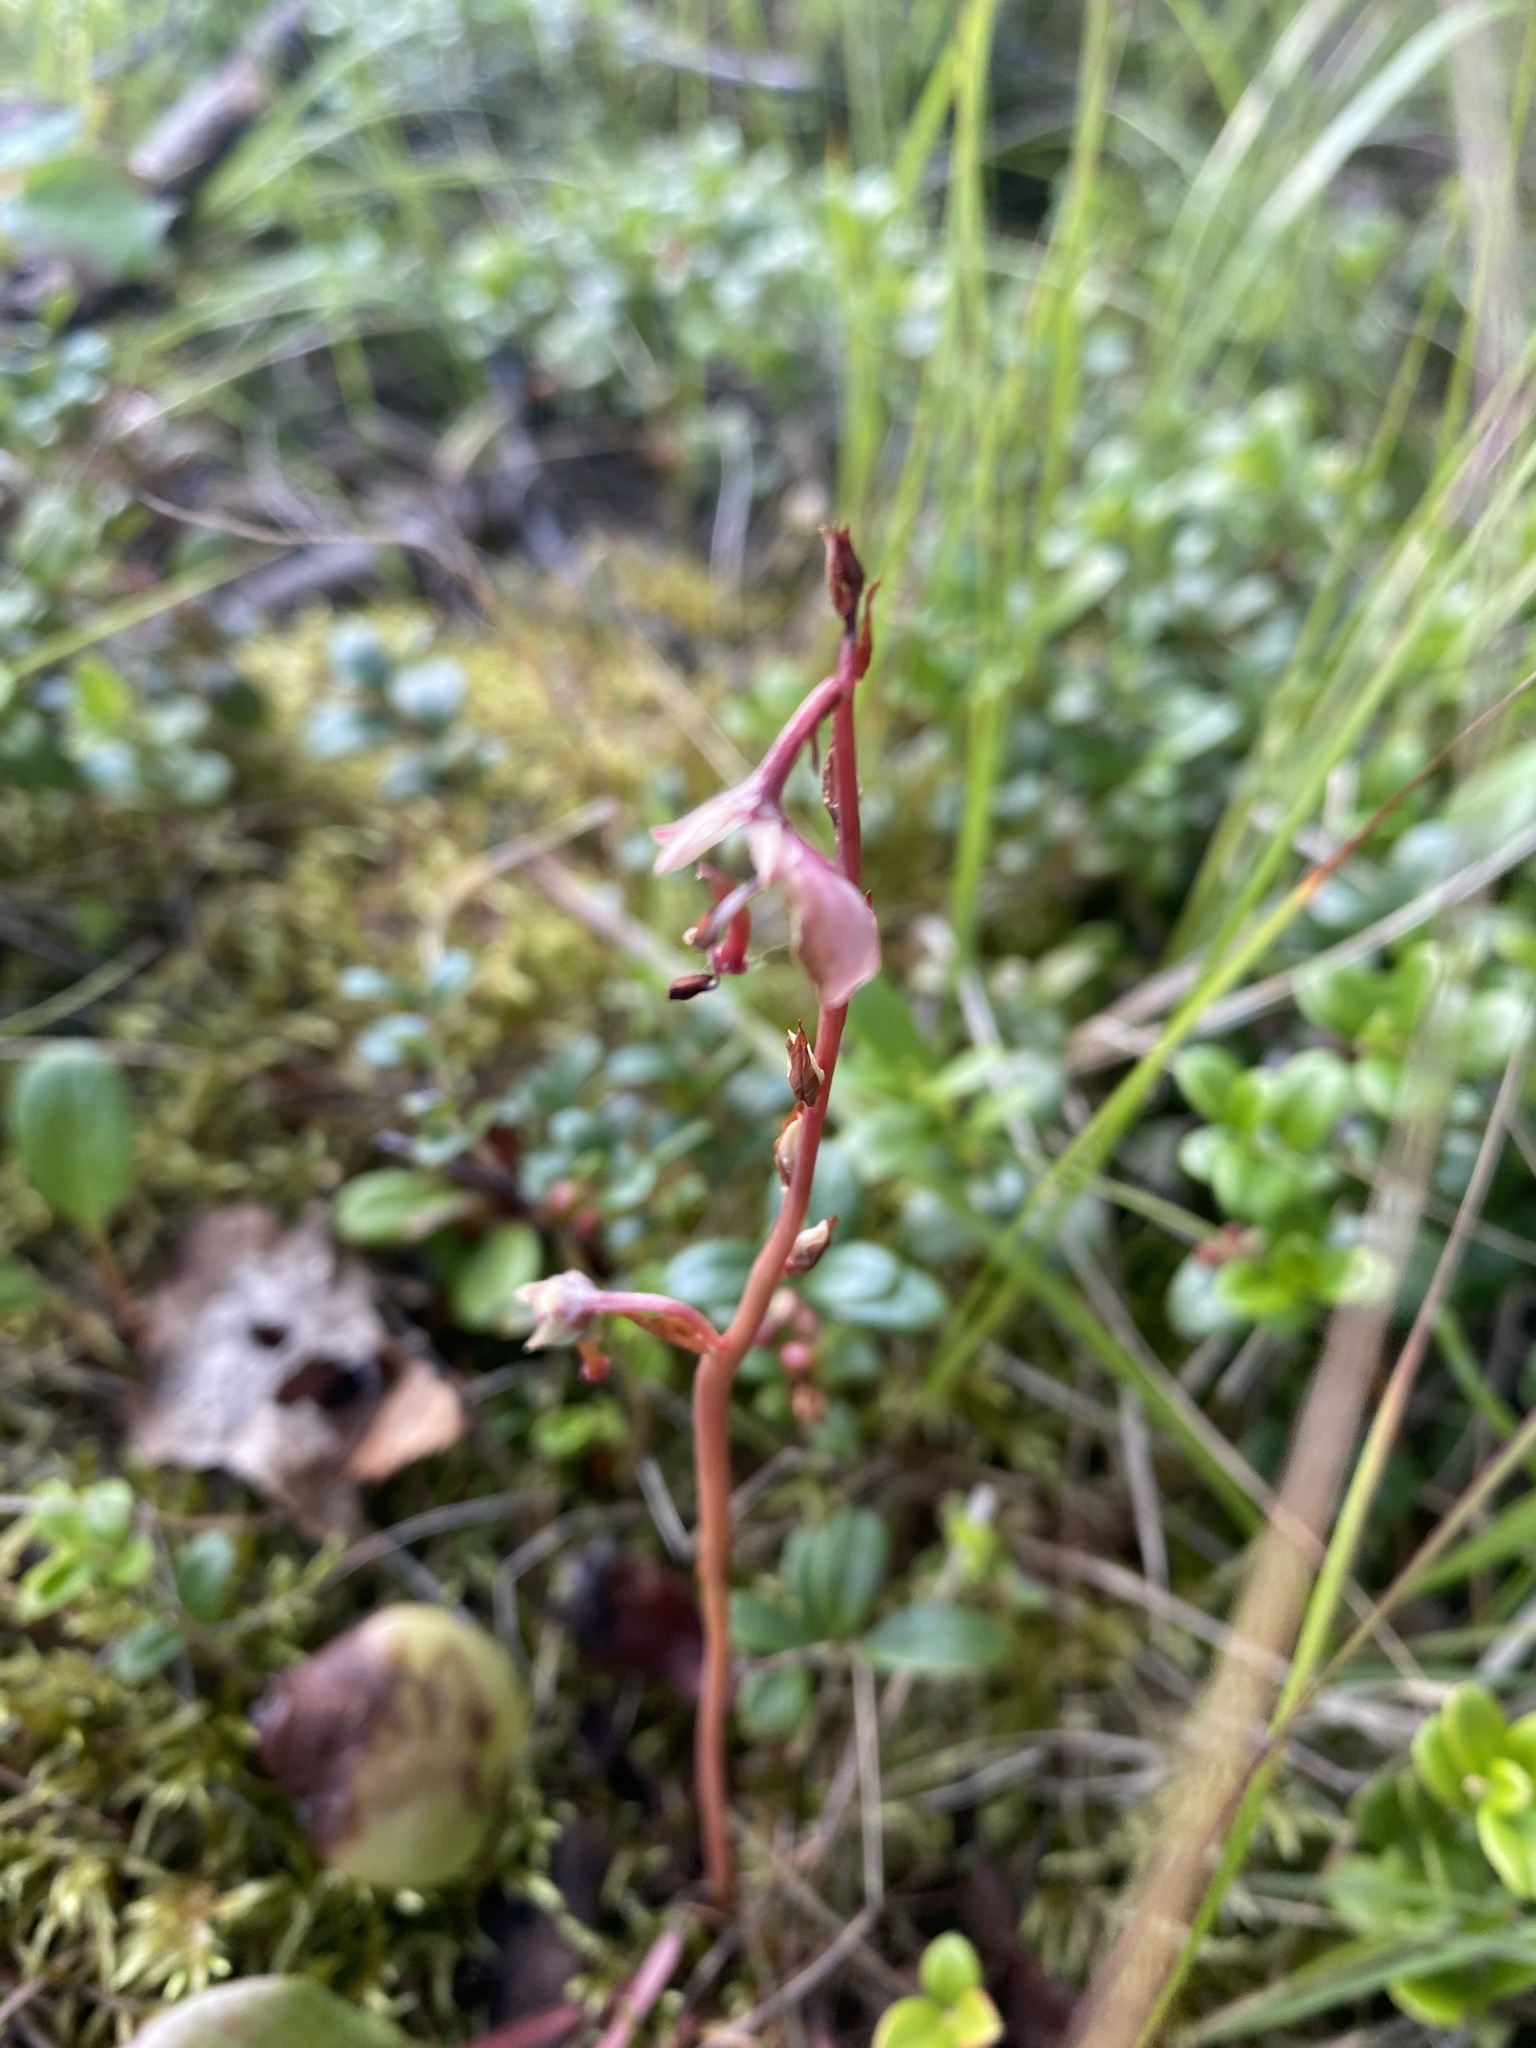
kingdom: Plantae
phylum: Tracheophyta
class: Magnoliopsida
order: Ericales
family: Ericaceae
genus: Pyrola
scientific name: Pyrola asarifolia
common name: Bog wintergreen
